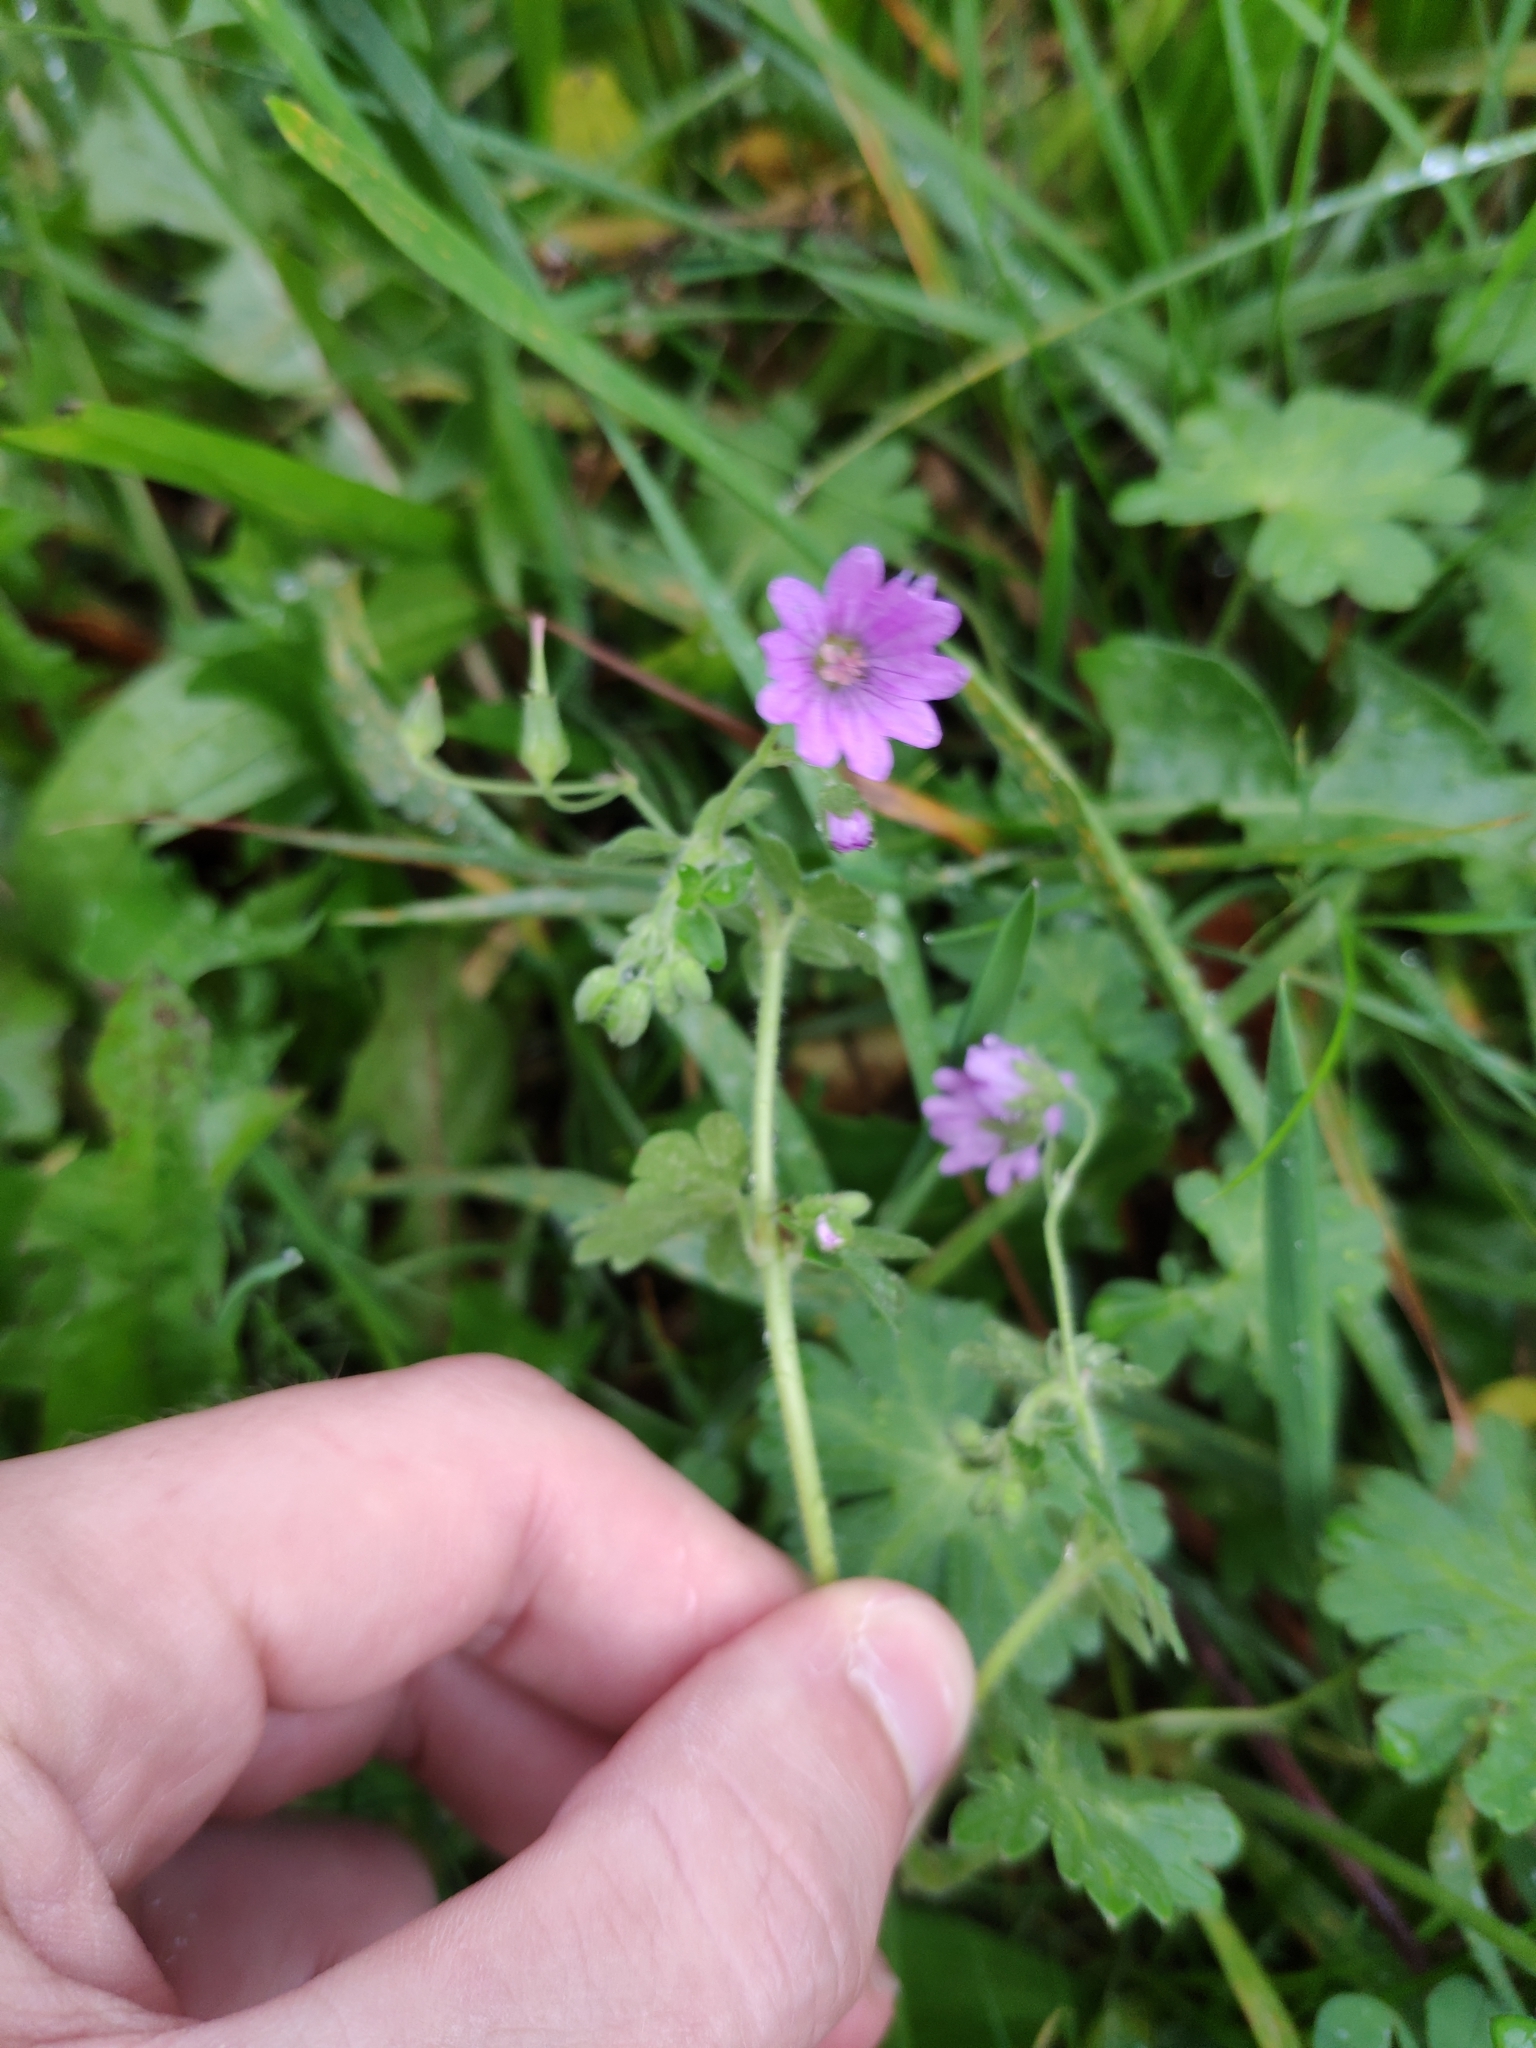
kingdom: Plantae
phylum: Tracheophyta
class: Magnoliopsida
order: Geraniales
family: Geraniaceae
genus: Geranium
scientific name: Geranium pyrenaicum
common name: Hedgerow crane's-bill
